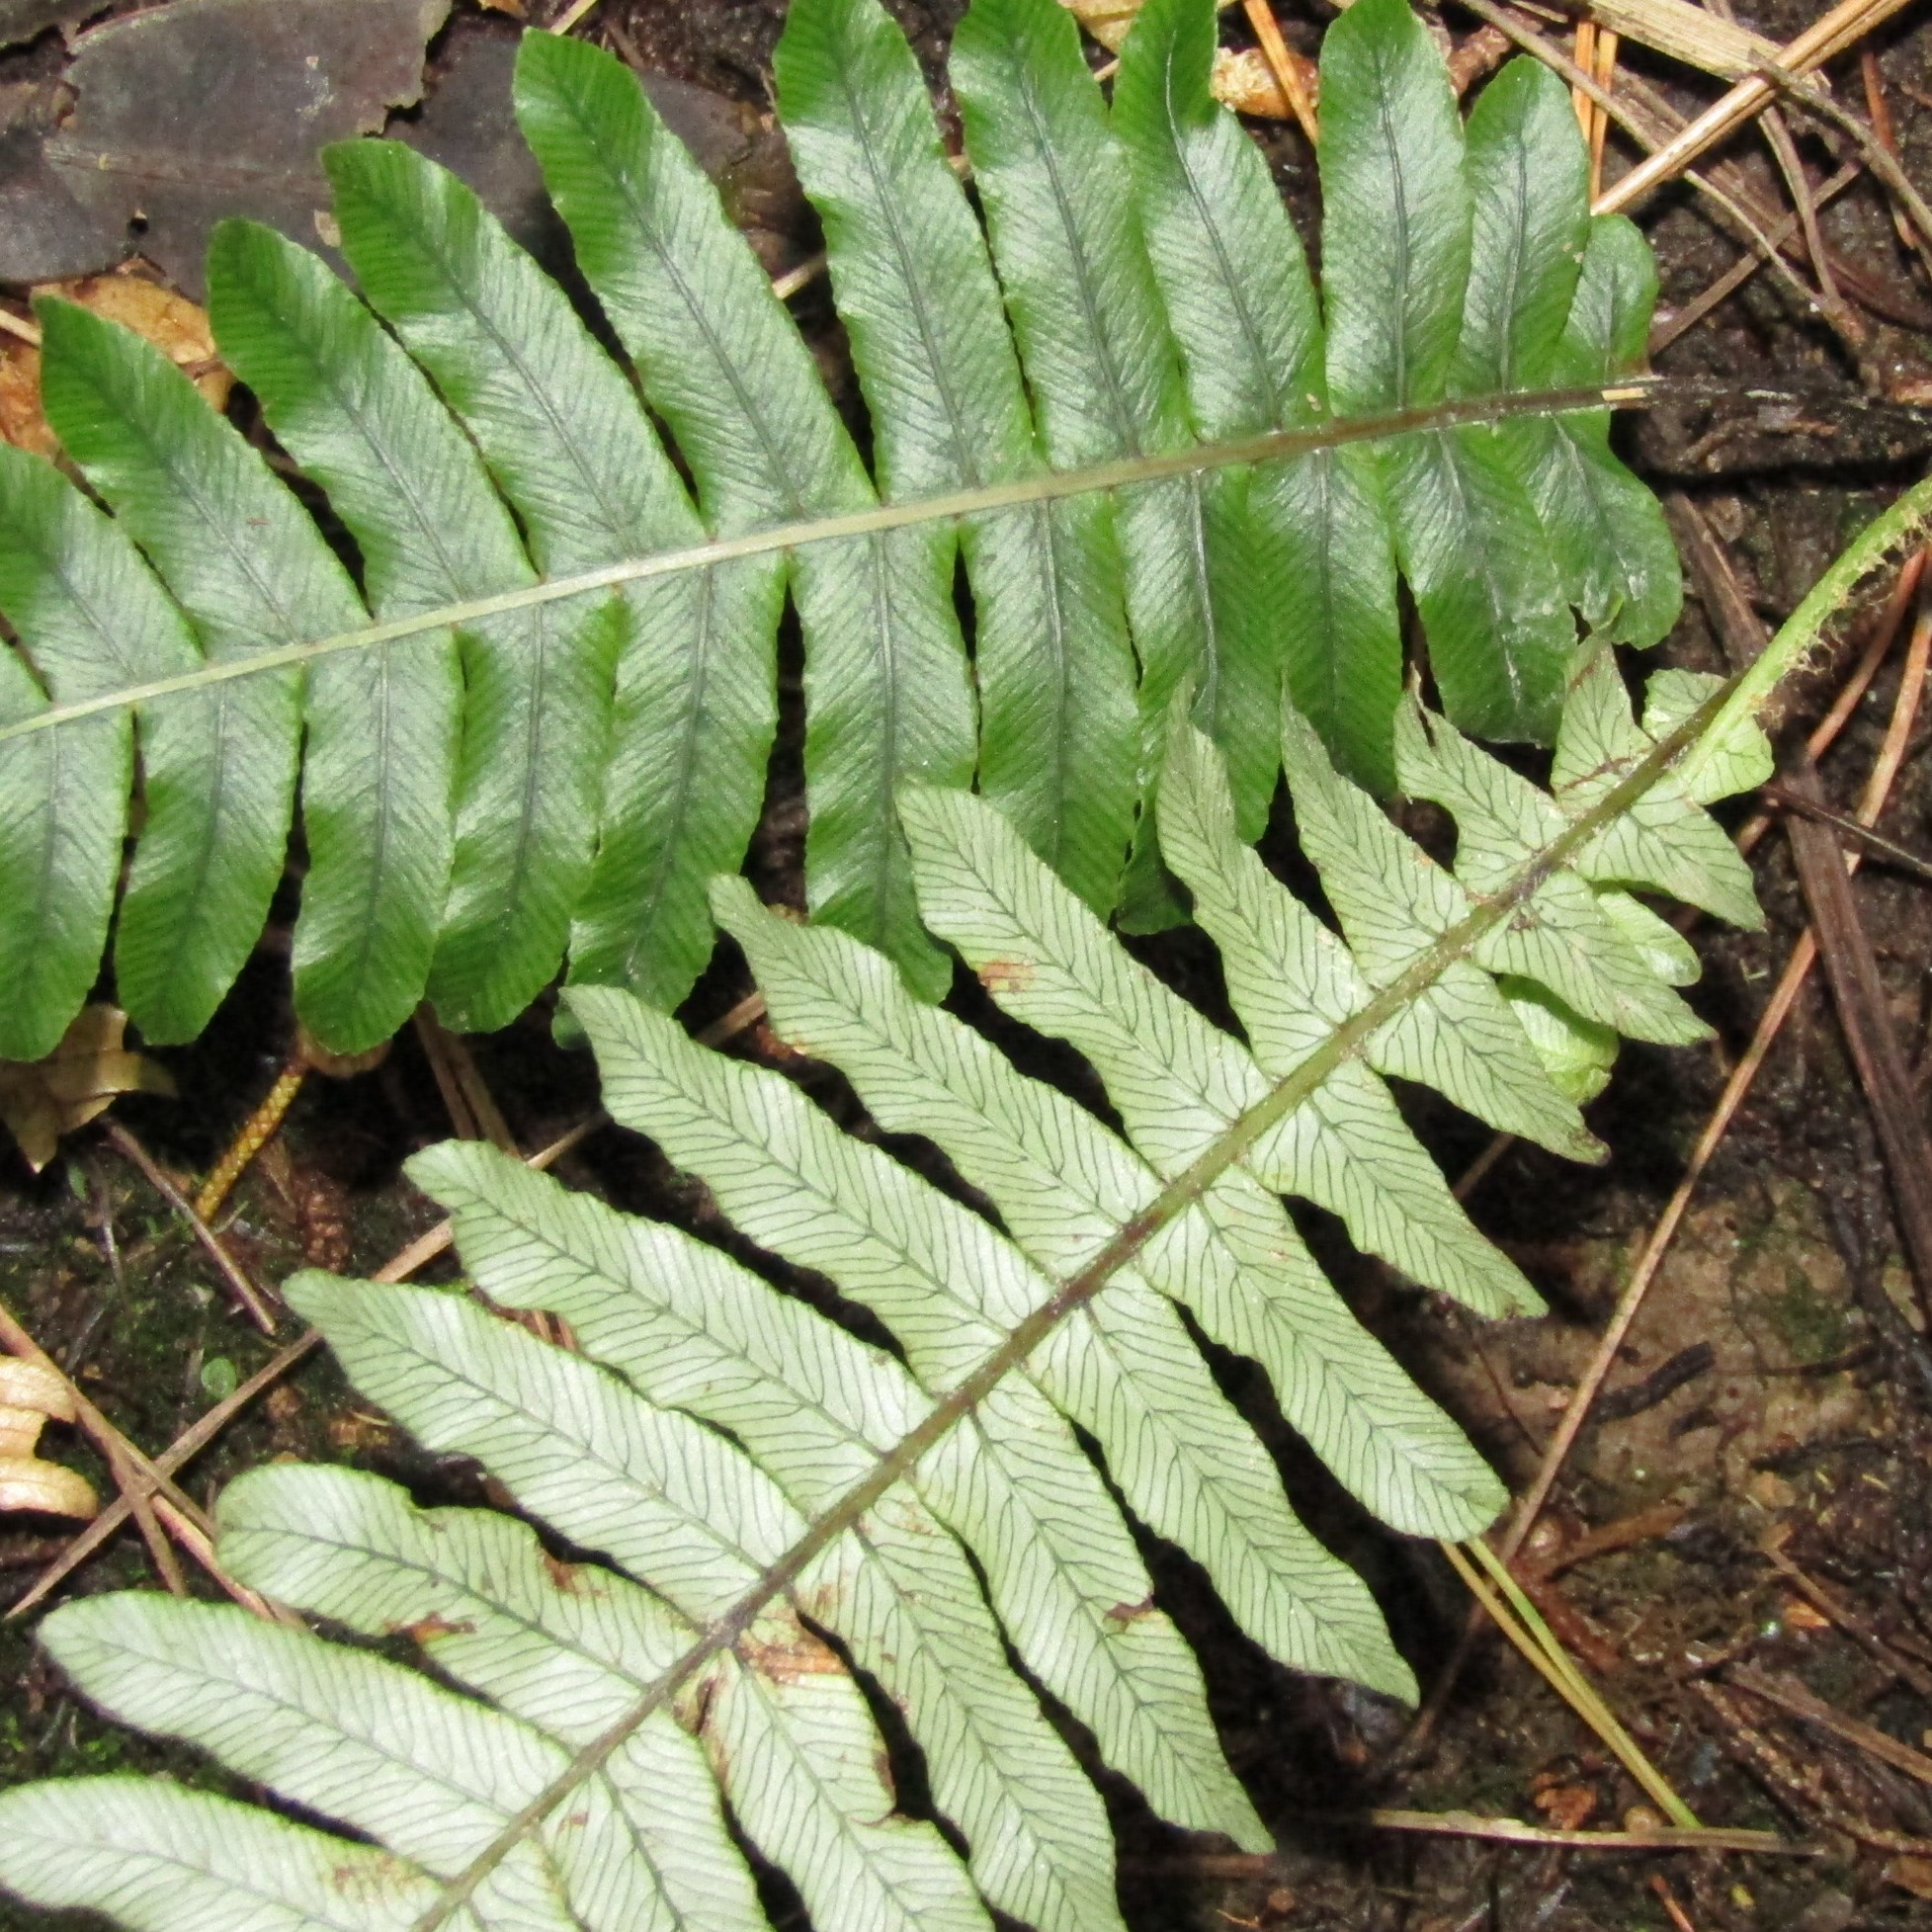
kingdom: Plantae
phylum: Tracheophyta
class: Polypodiopsida
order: Polypodiales
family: Blechnaceae
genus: Lomaria
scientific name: Lomaria discolor
